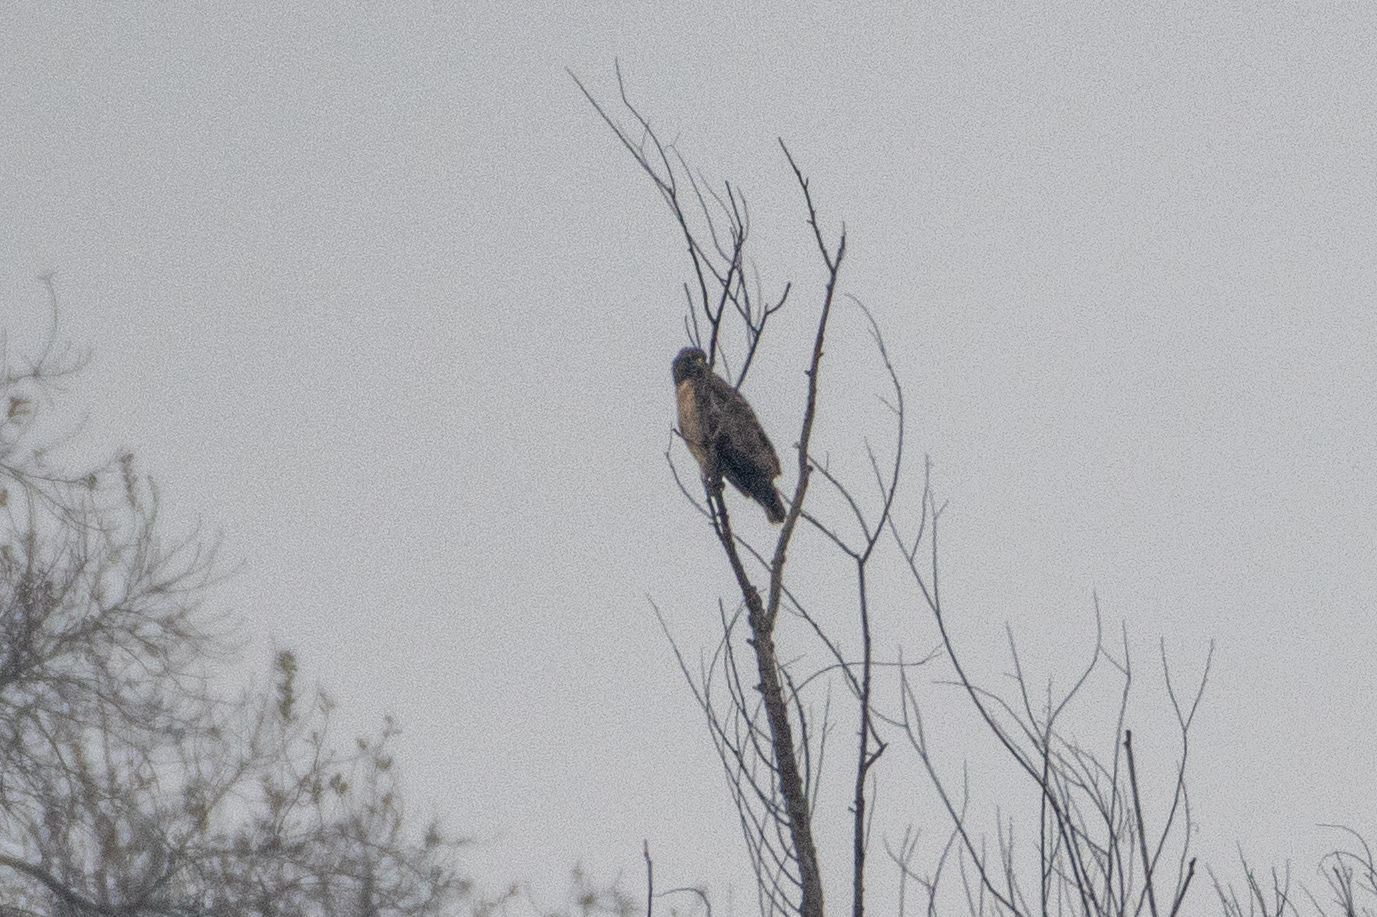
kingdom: Animalia
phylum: Chordata
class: Aves
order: Accipitriformes
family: Accipitridae
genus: Buteo
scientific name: Buteo jamaicensis
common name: Red-tailed hawk
